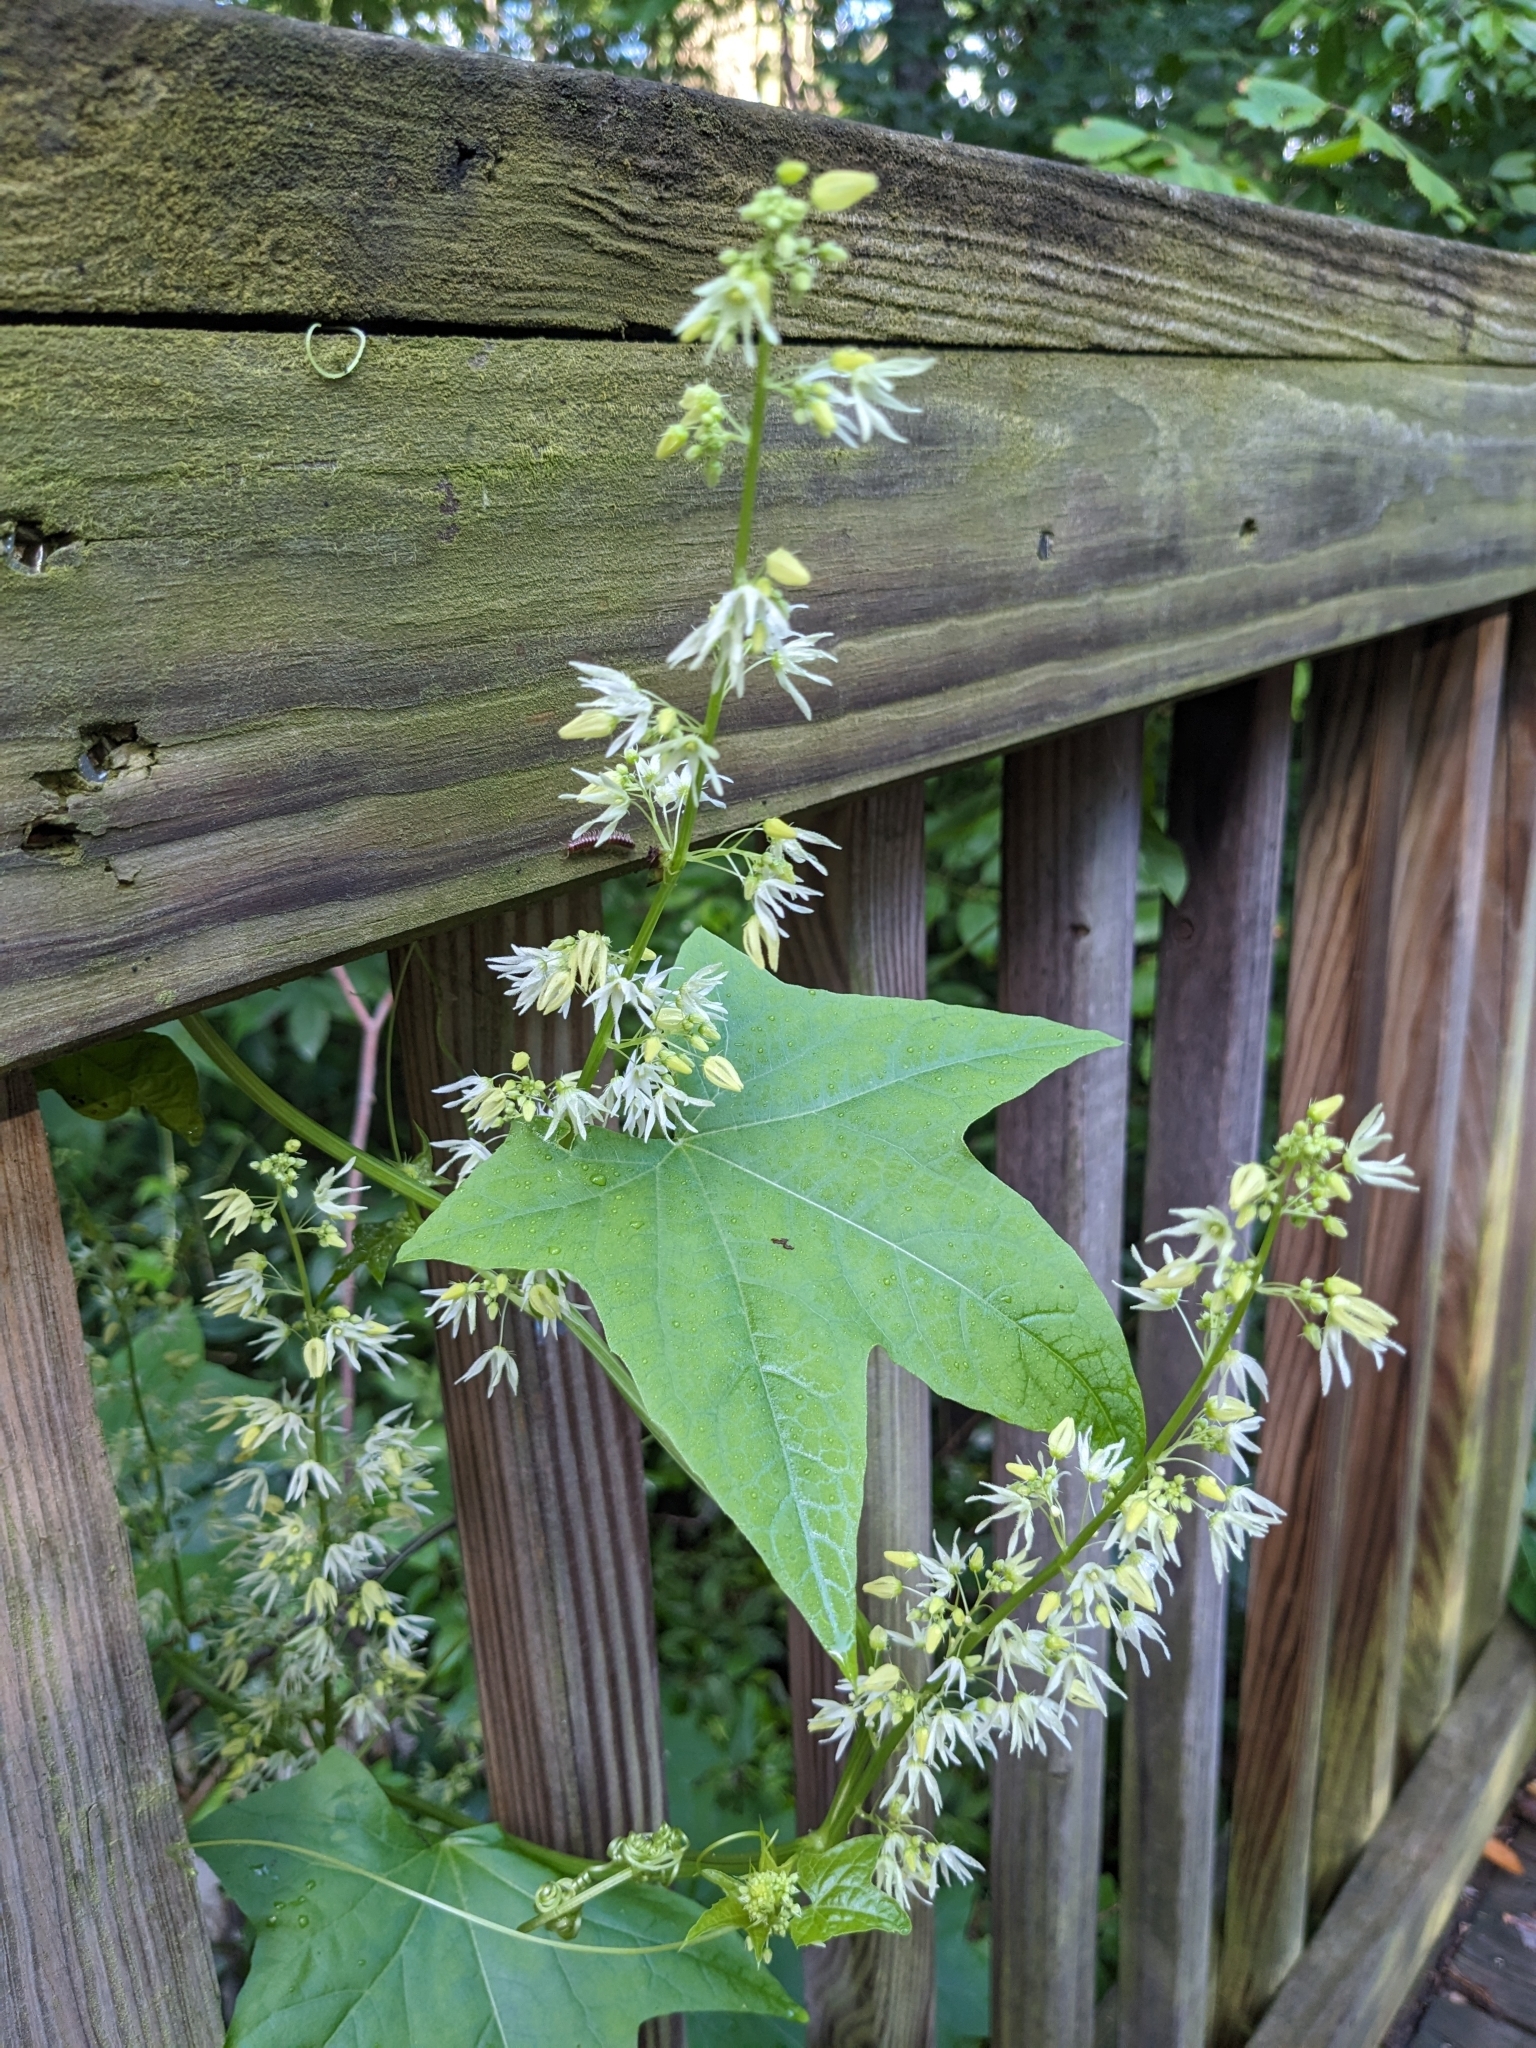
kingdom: Plantae
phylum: Tracheophyta
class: Magnoliopsida
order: Cucurbitales
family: Cucurbitaceae
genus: Echinocystis
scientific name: Echinocystis lobata
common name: Wild cucumber
